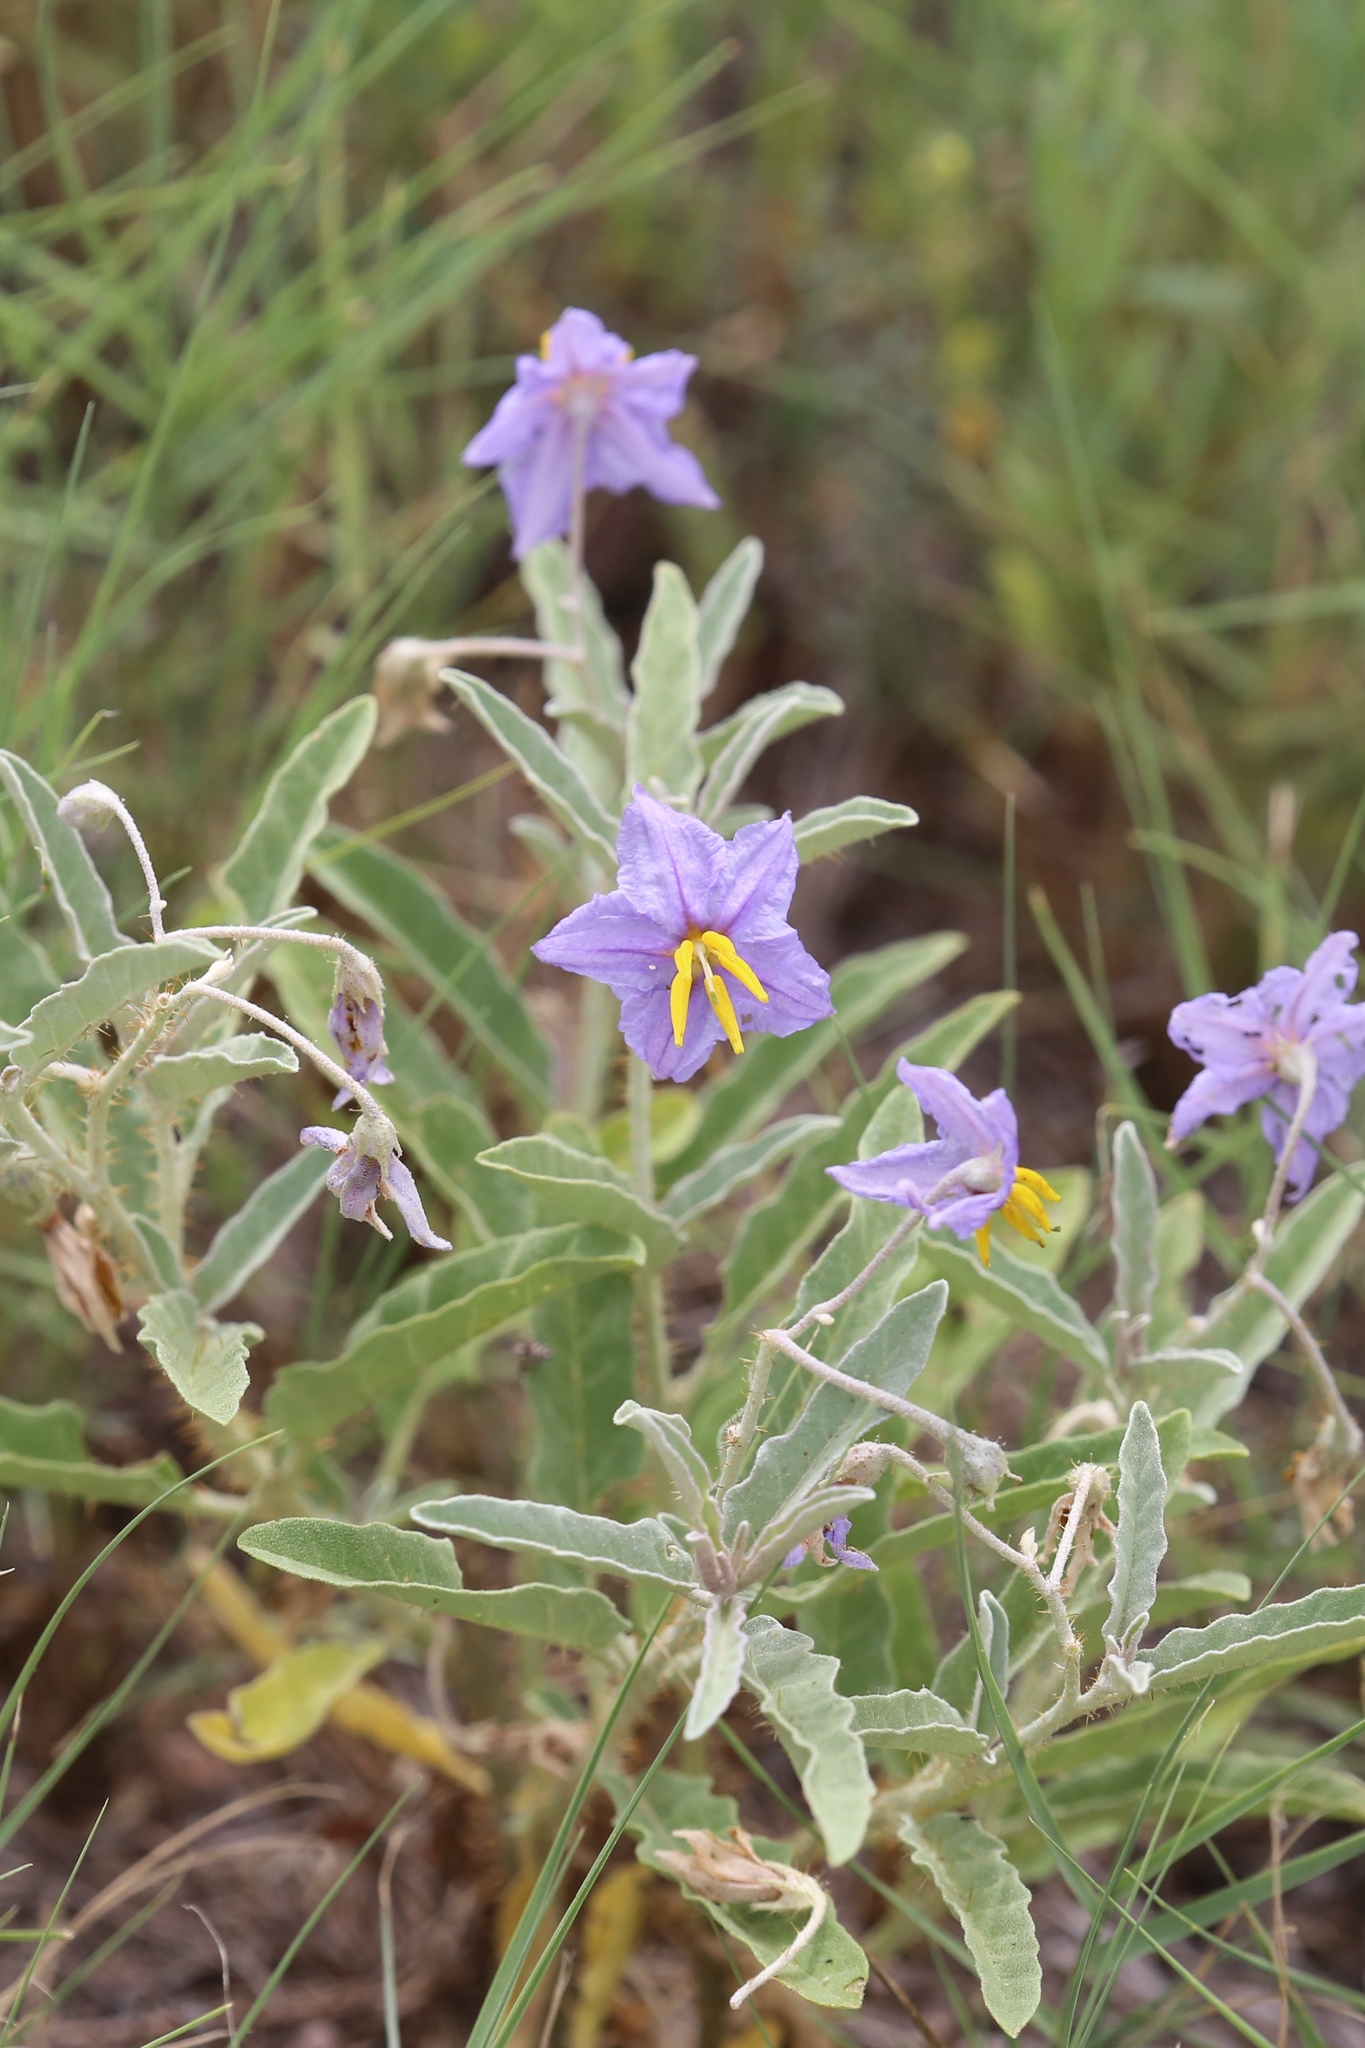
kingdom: Plantae
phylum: Tracheophyta
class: Magnoliopsida
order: Solanales
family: Solanaceae
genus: Solanum
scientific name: Solanum elaeagnifolium
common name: Silverleaf nightshade
